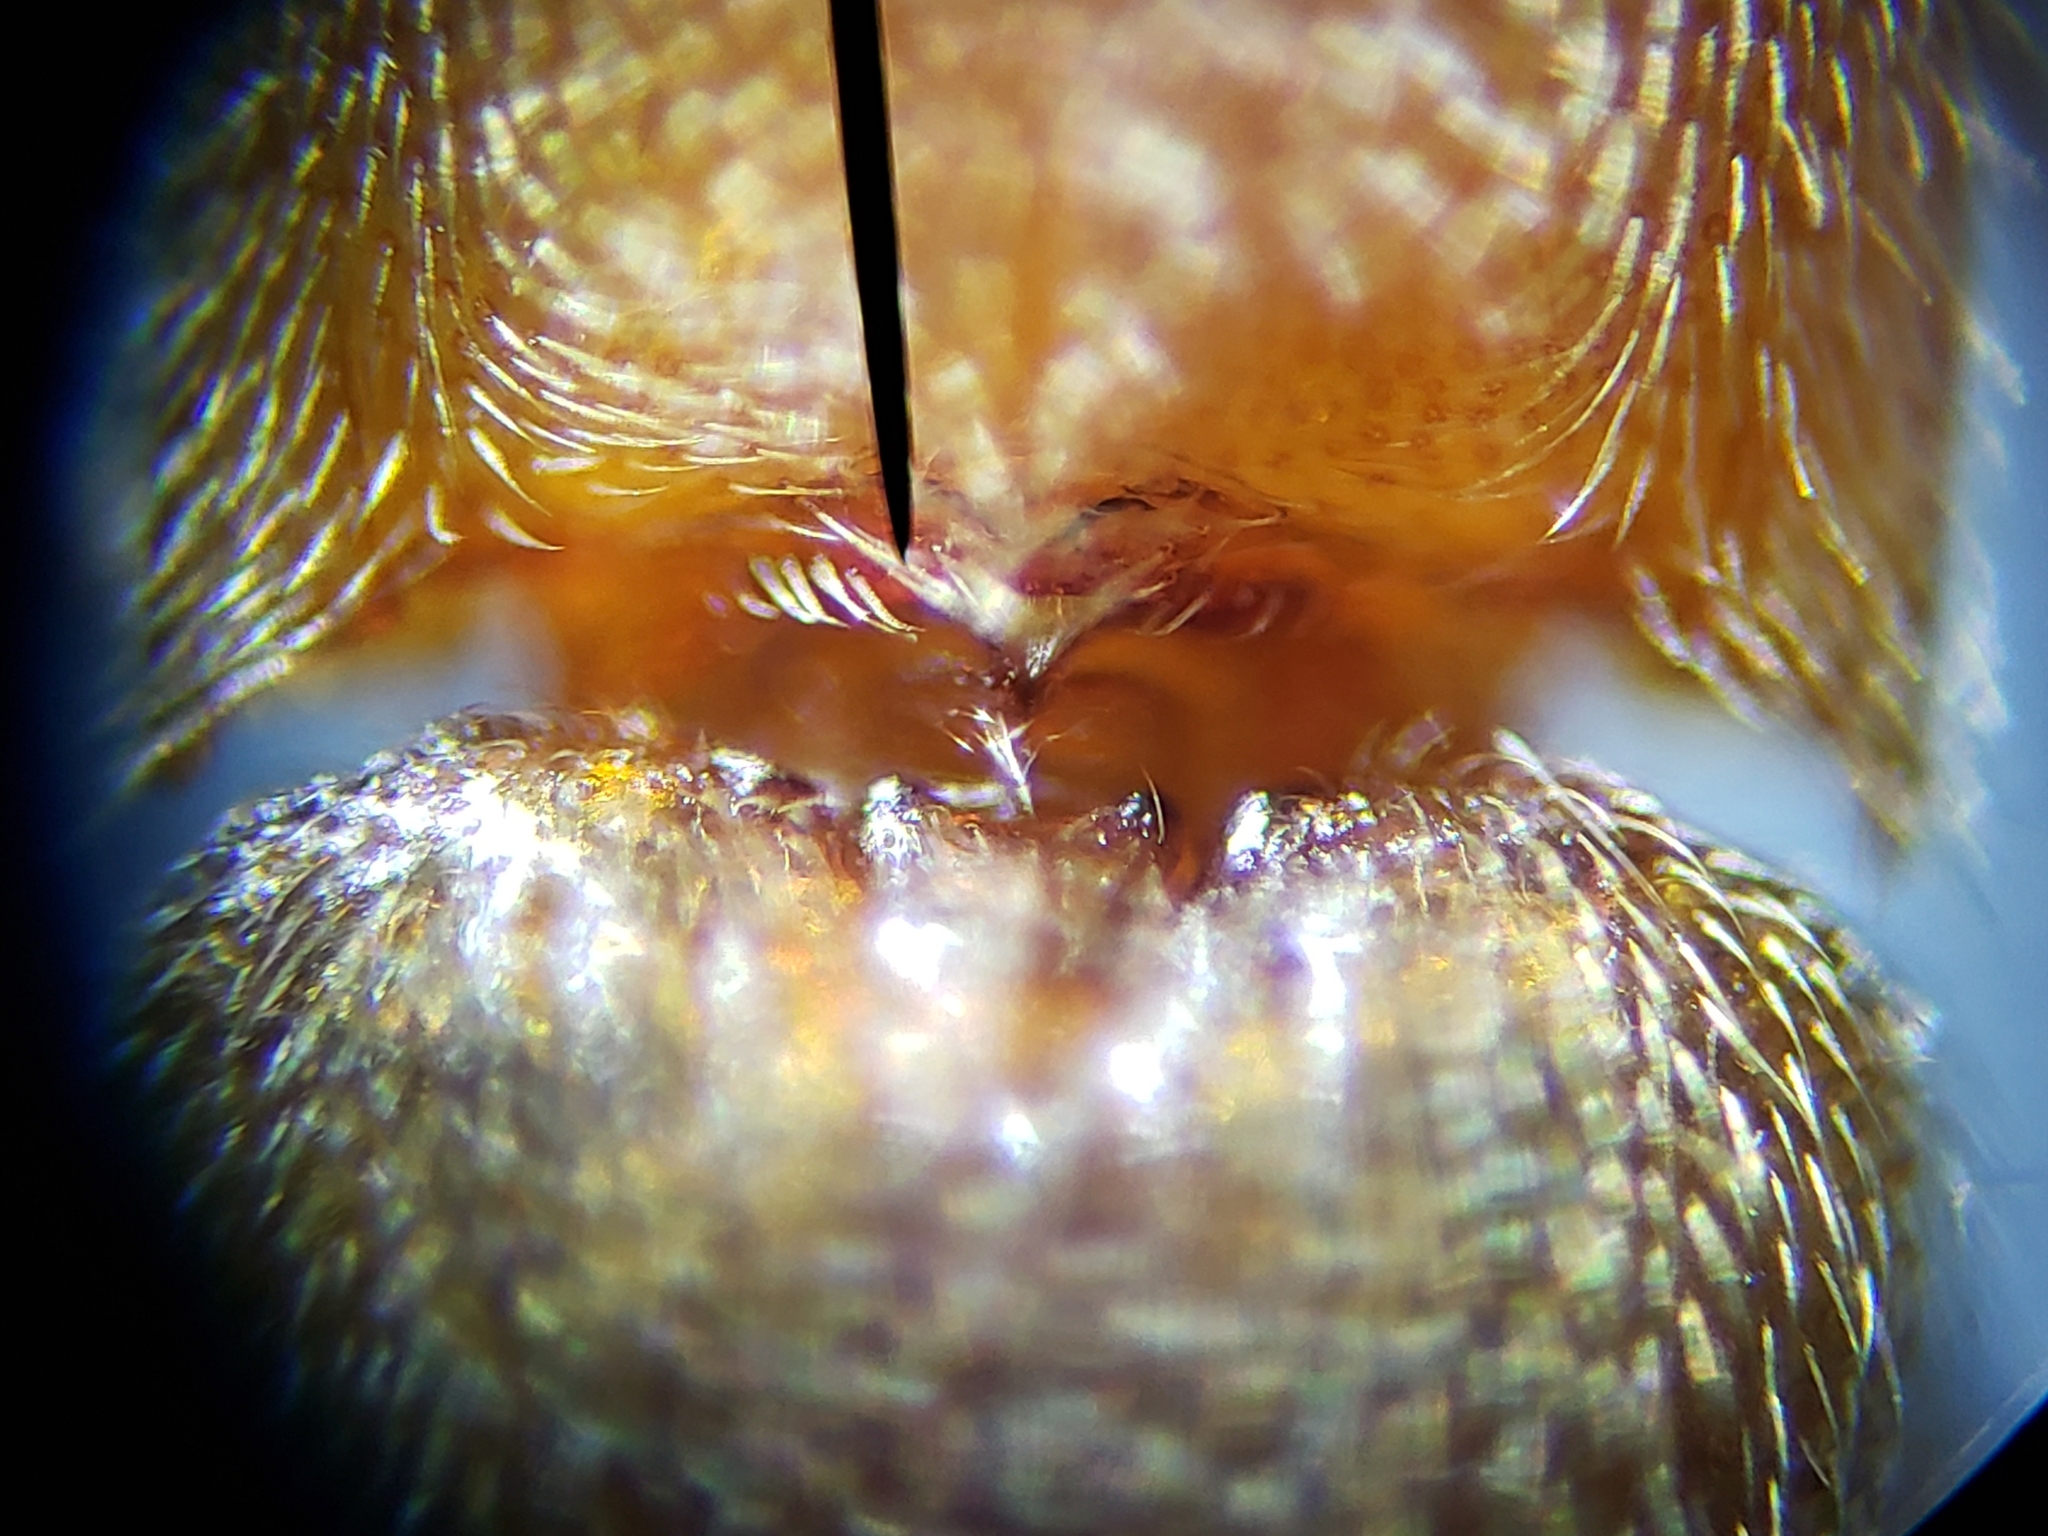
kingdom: Animalia
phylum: Arthropoda
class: Insecta
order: Coleoptera
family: Elateridae
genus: Glyphonyx
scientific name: Glyphonyx
